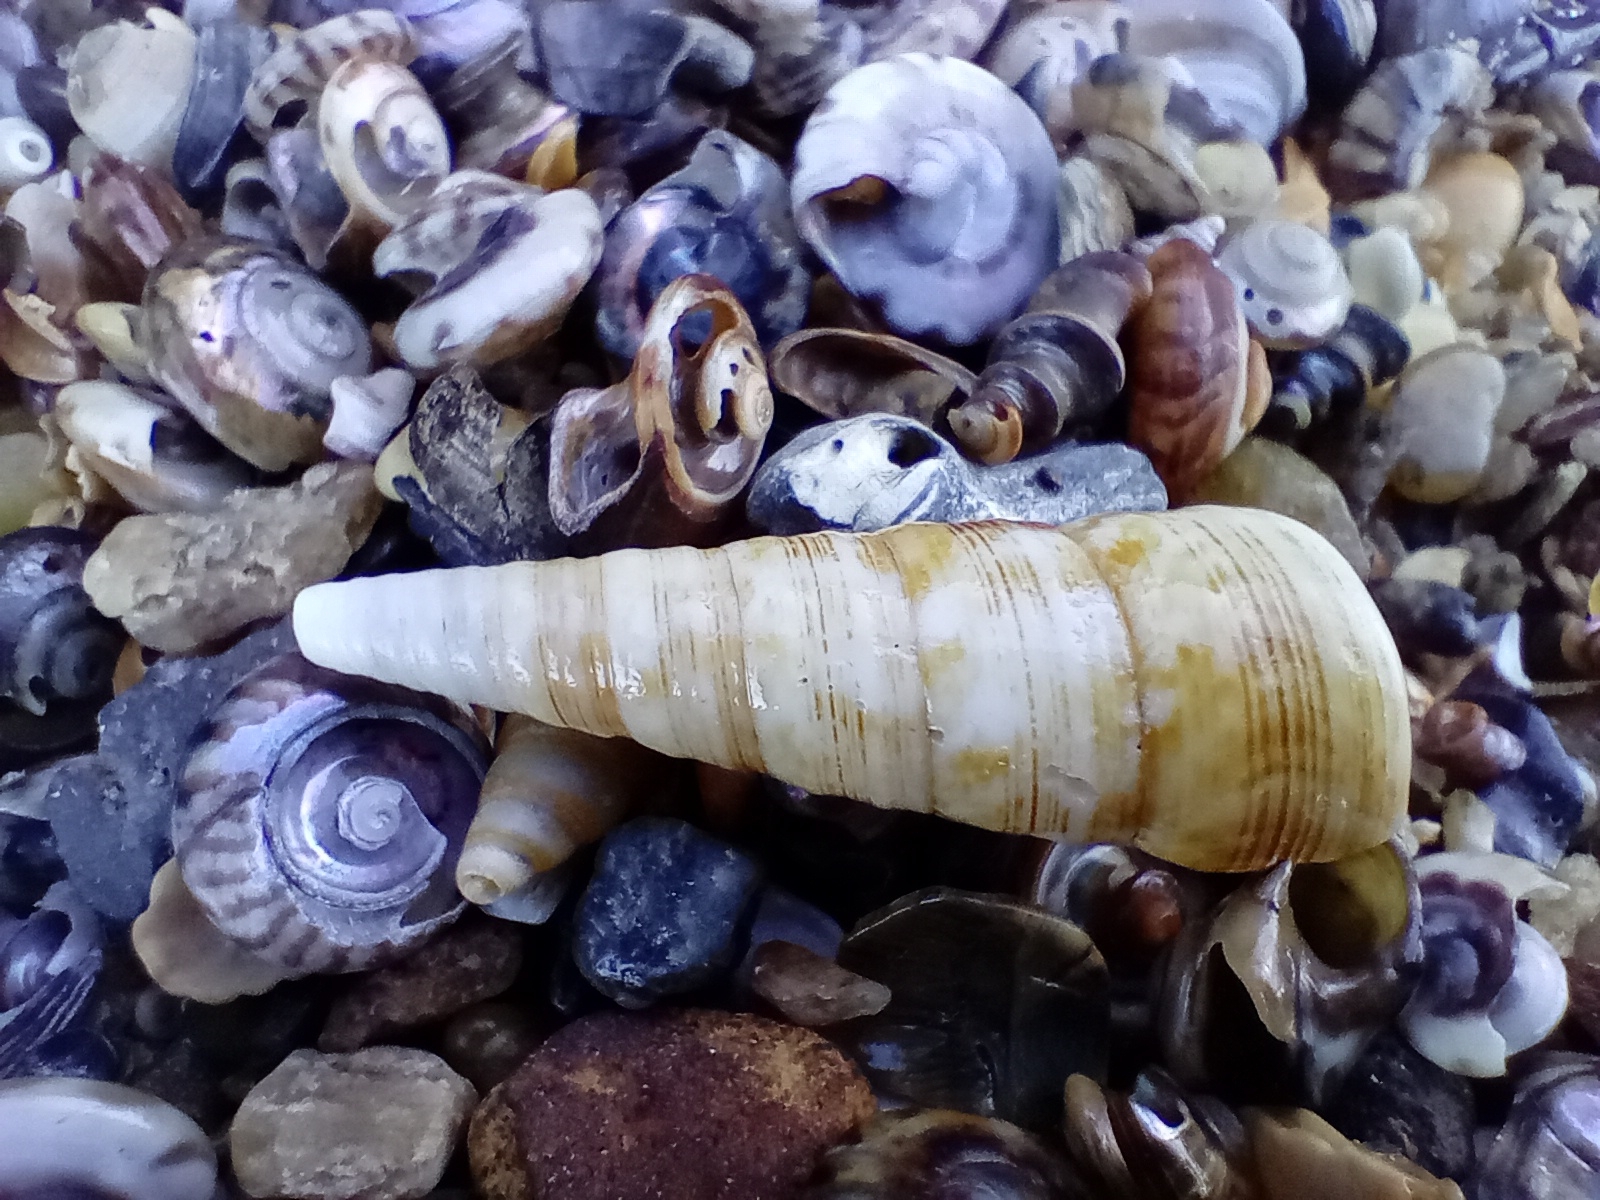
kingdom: Animalia
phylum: Mollusca
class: Gastropoda
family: Turritellidae
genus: Maoricolpus
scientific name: Maoricolpus roseus
